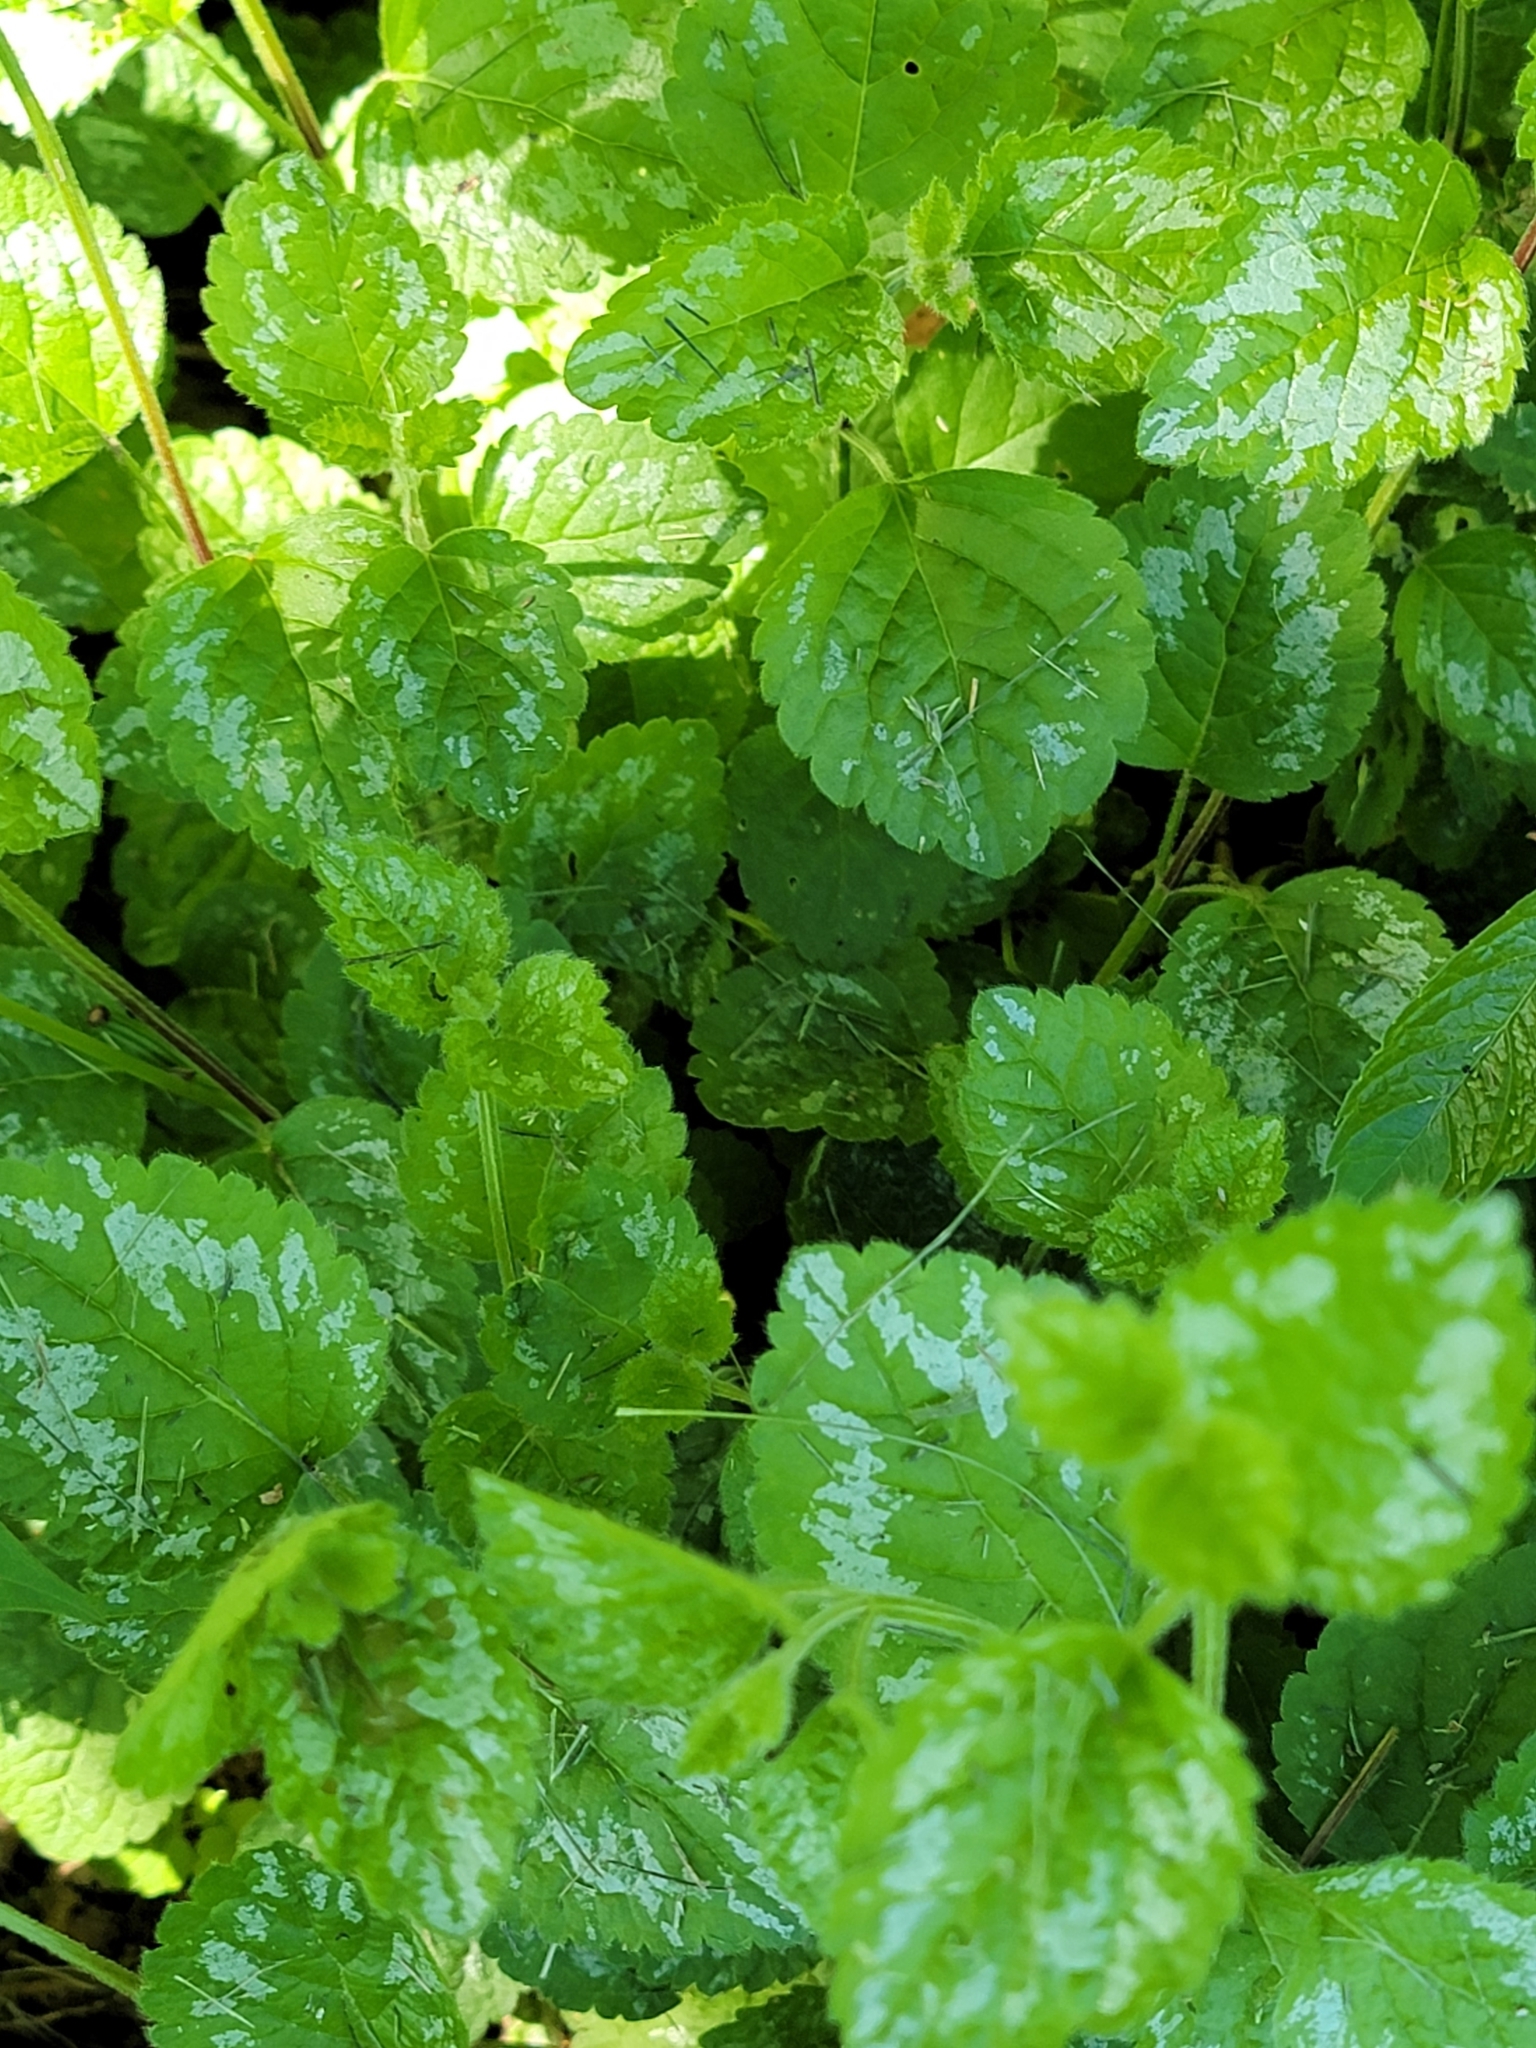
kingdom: Plantae
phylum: Tracheophyta
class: Magnoliopsida
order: Lamiales
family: Lamiaceae
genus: Lamium
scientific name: Lamium galeobdolon
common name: Yellow archangel
